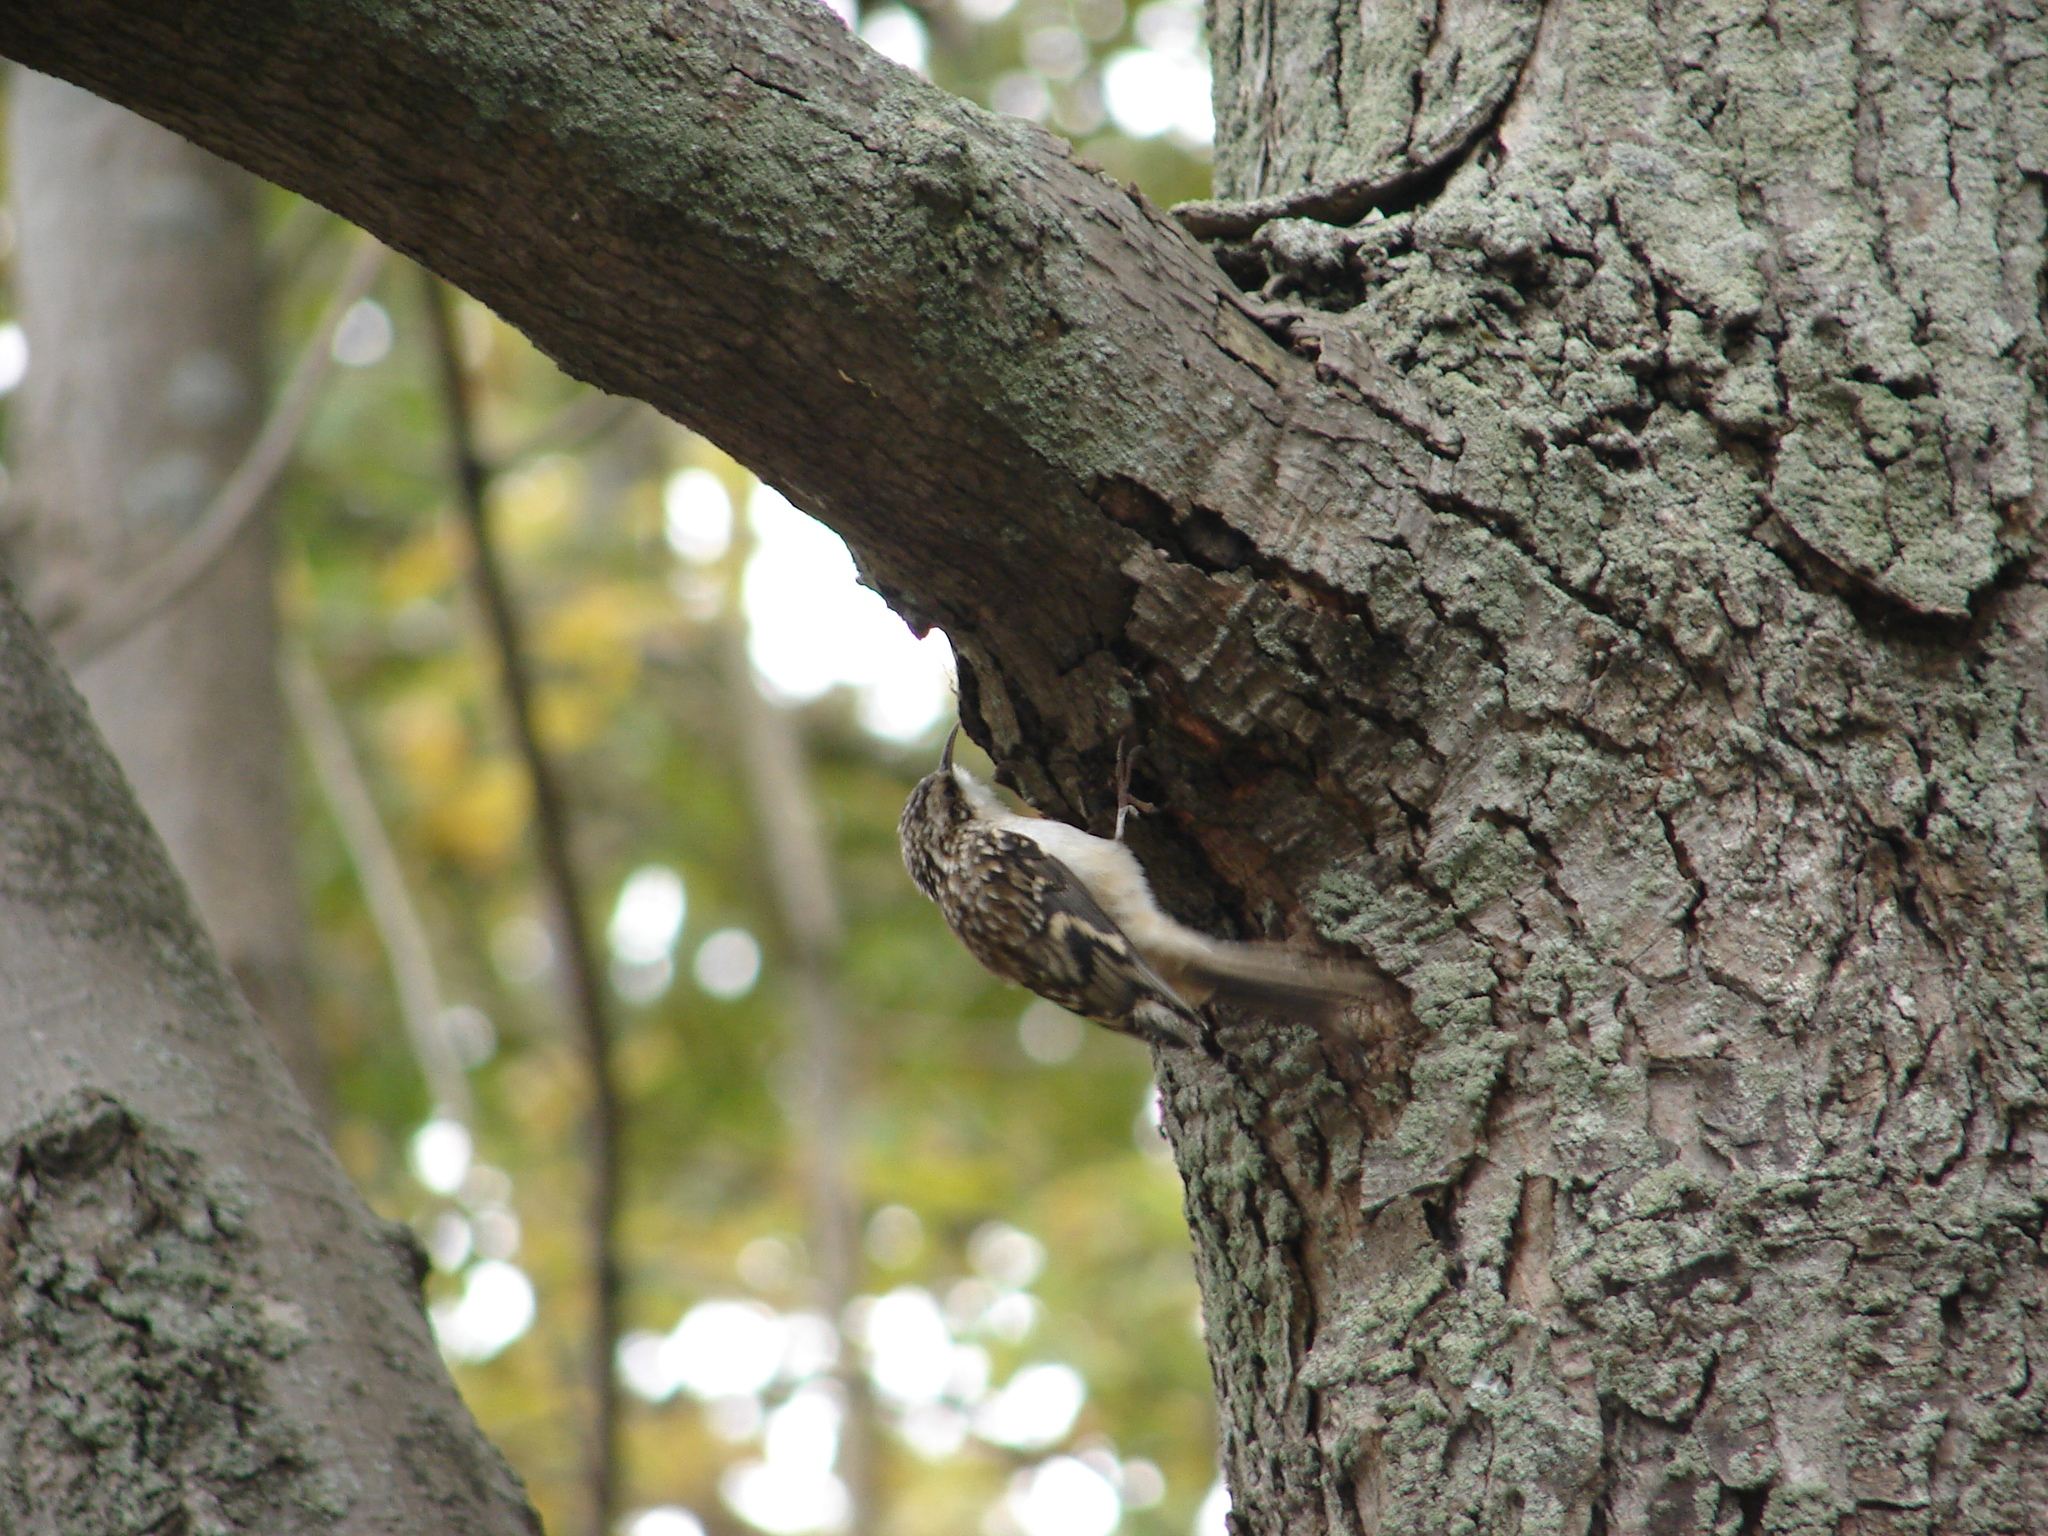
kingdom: Animalia
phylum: Chordata
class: Aves
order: Passeriformes
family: Certhiidae
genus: Certhia
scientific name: Certhia americana
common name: Brown creeper
